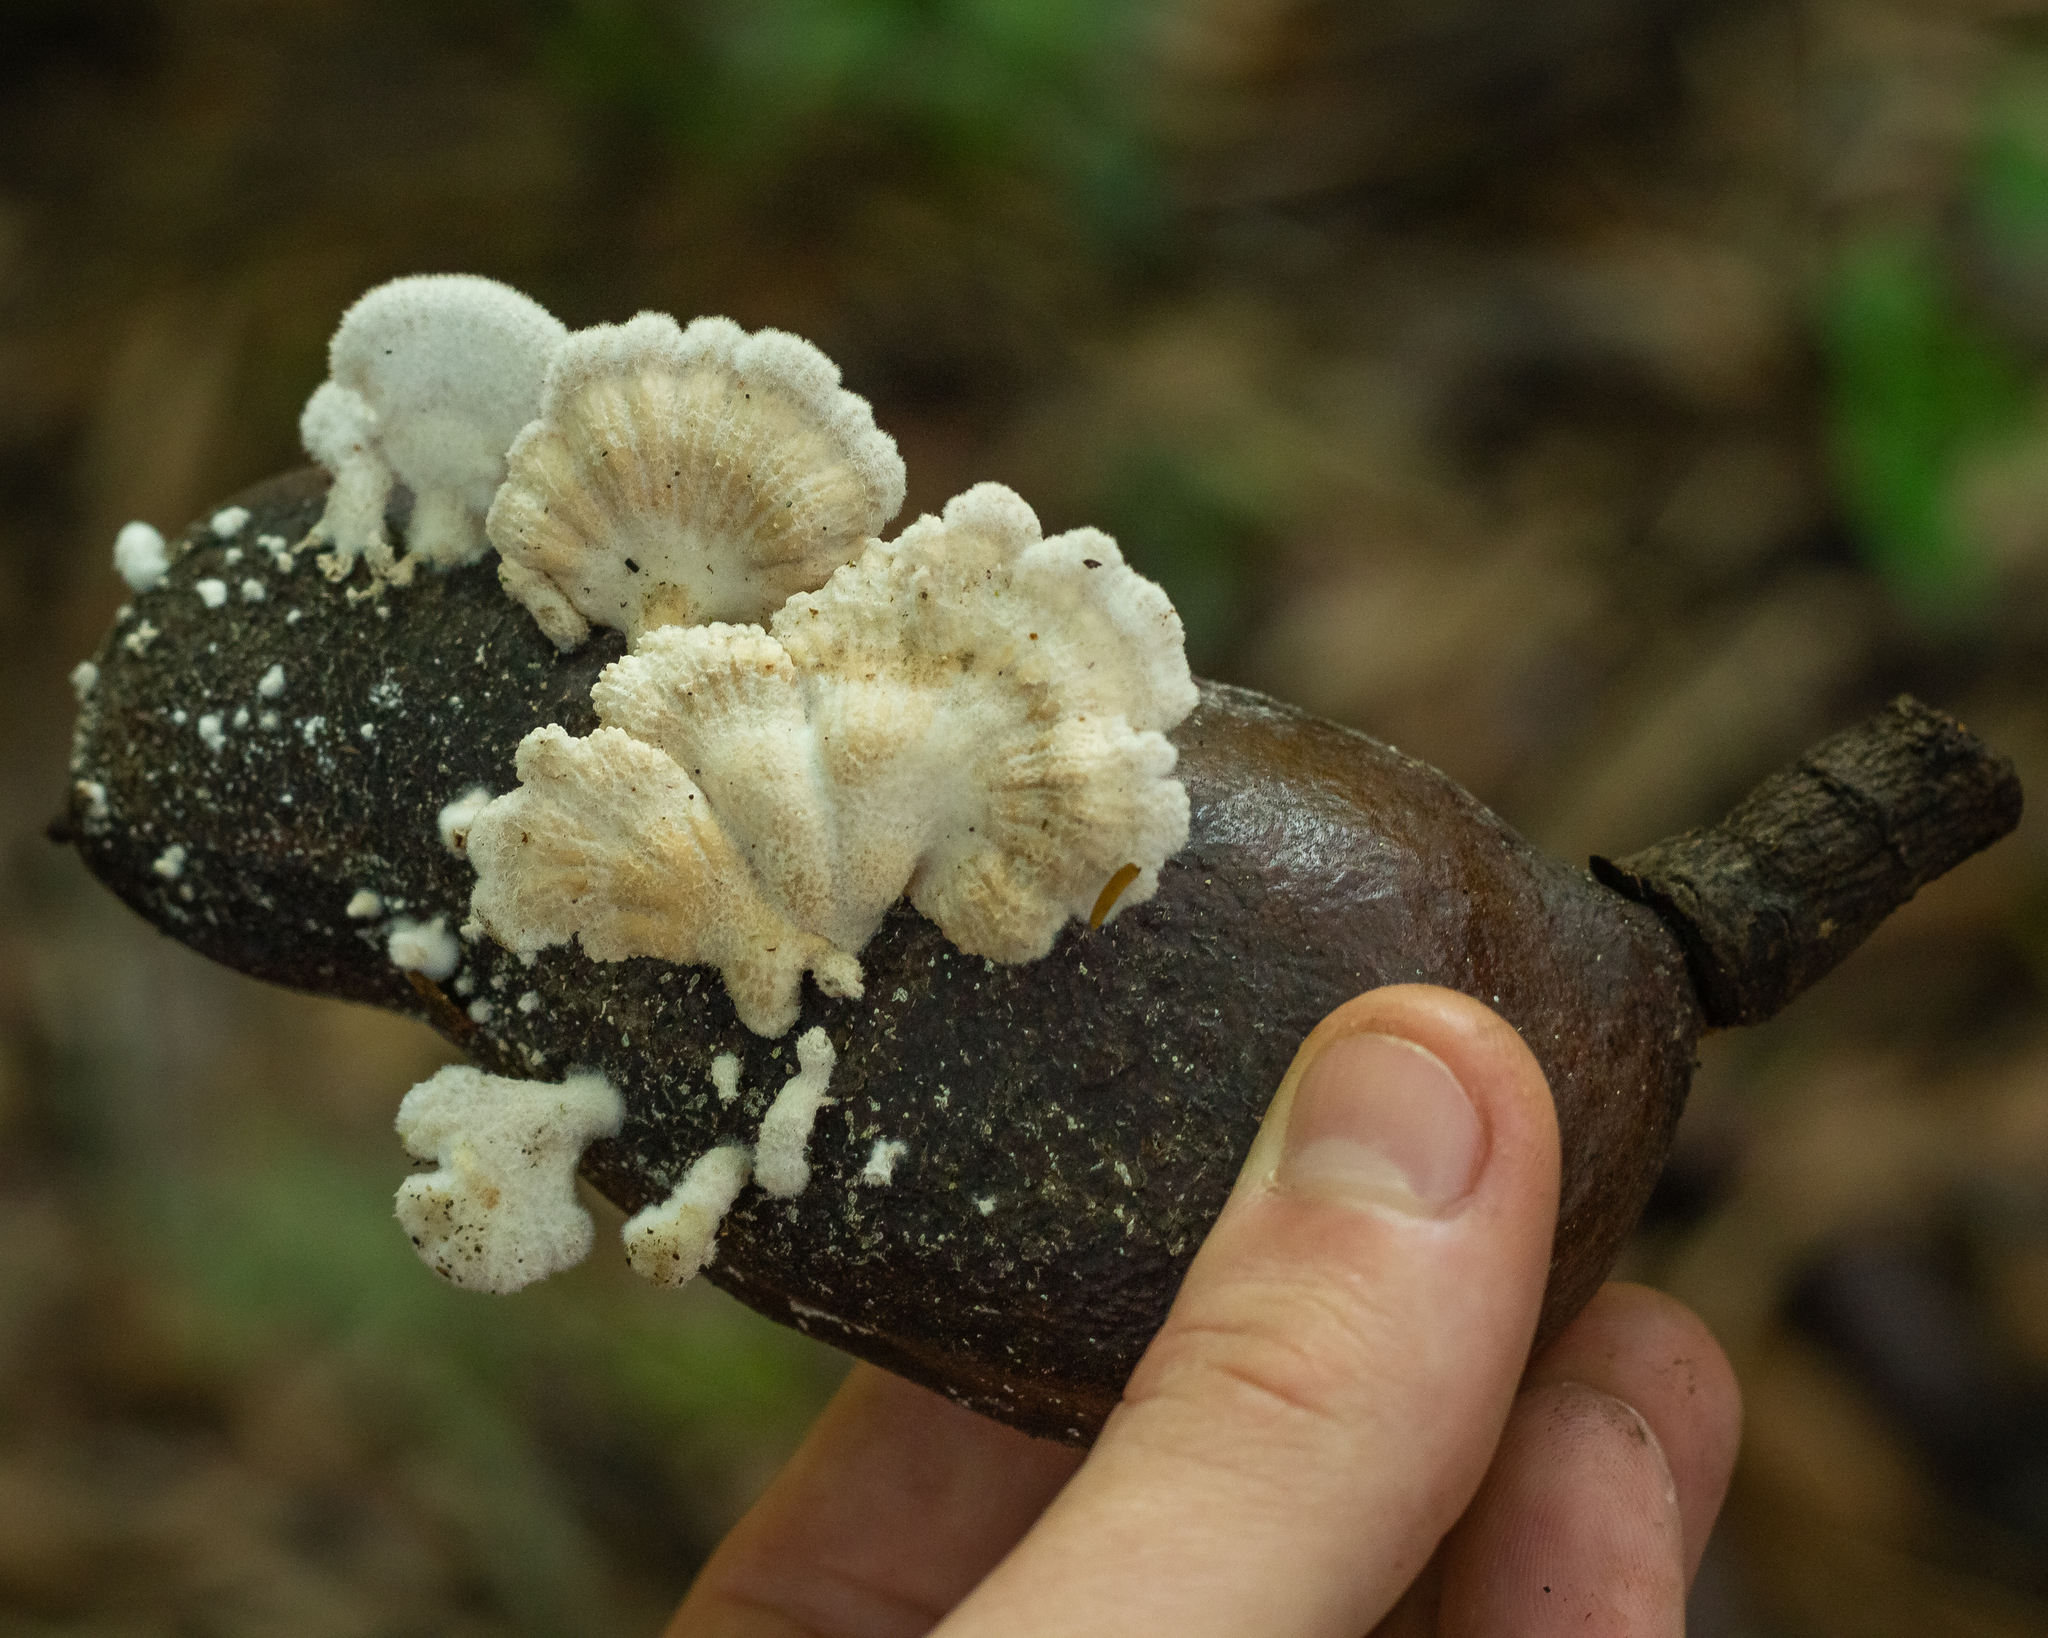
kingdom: Fungi
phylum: Basidiomycota
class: Agaricomycetes
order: Agaricales
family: Schizophyllaceae
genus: Schizophyllum
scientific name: Schizophyllum commune
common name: Common porecrust
